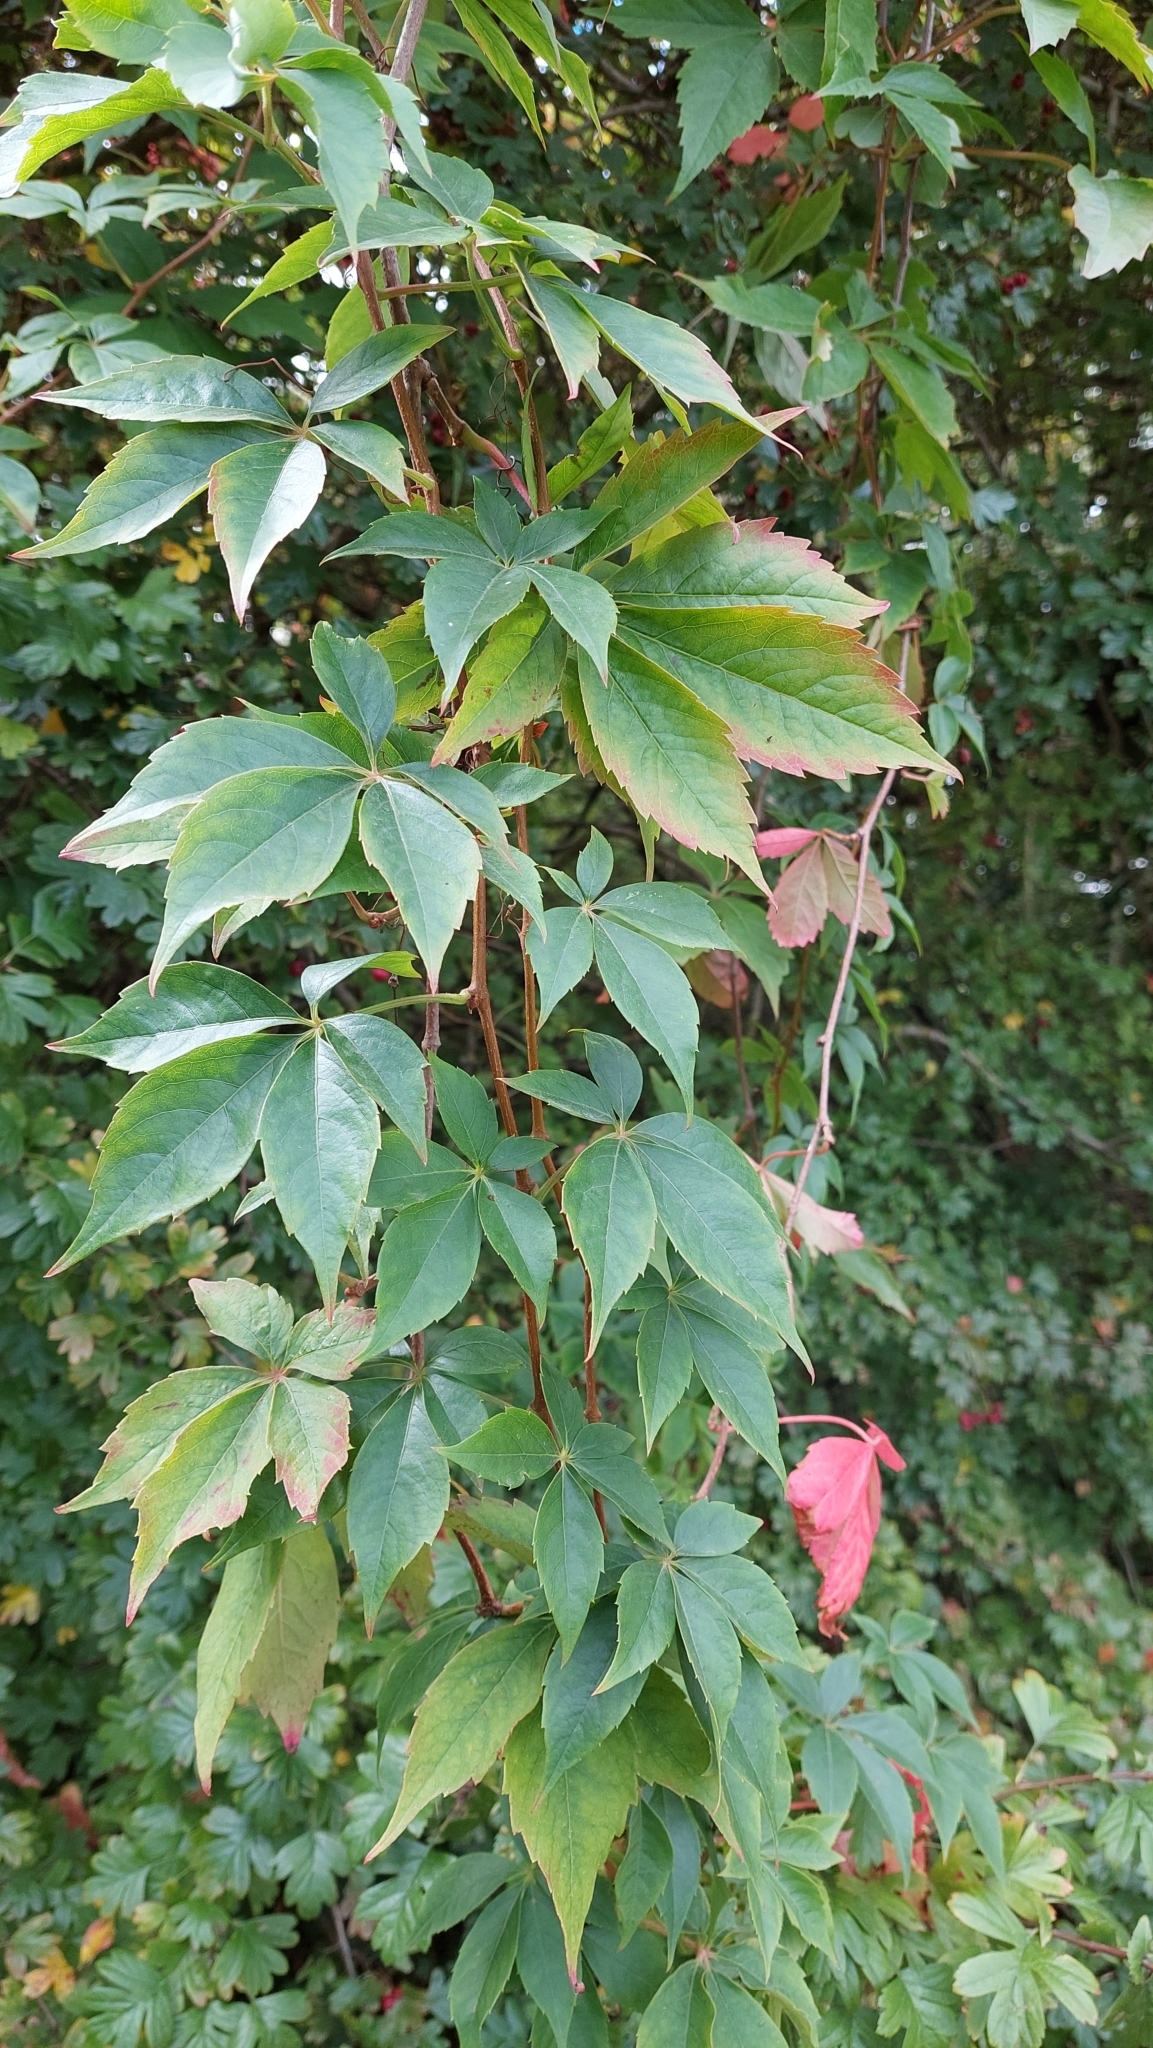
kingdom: Plantae
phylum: Tracheophyta
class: Magnoliopsida
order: Vitales
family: Vitaceae
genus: Parthenocissus
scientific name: Parthenocissus quinquefolia
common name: Virginia-creeper
